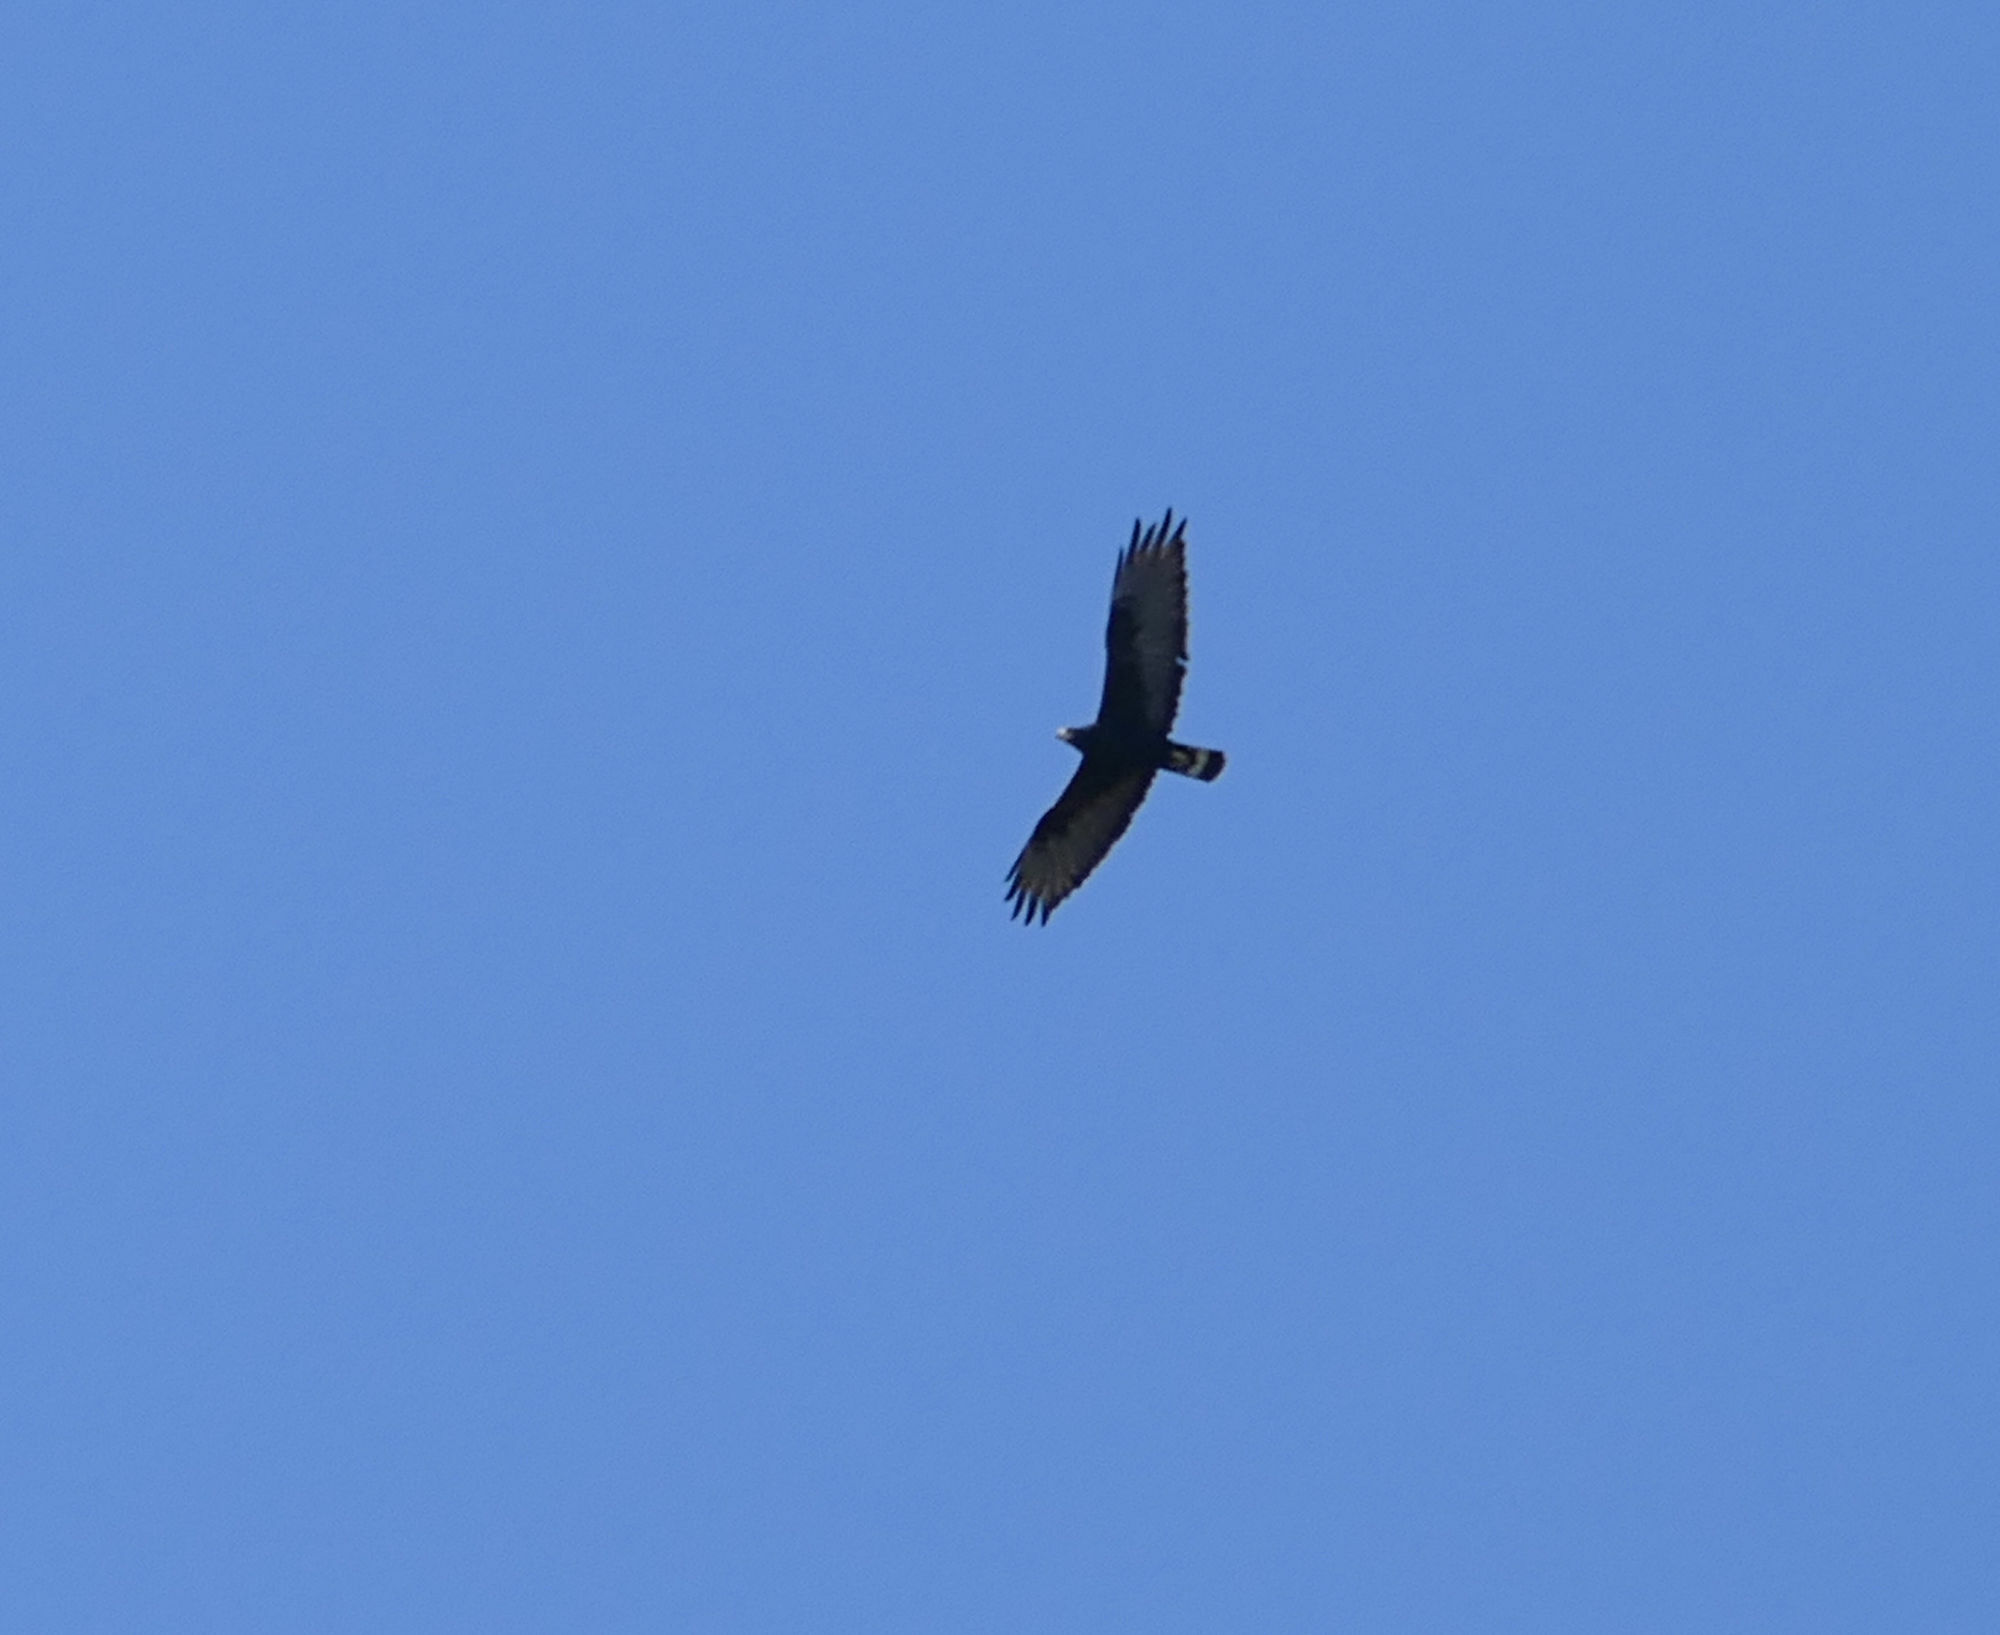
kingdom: Animalia
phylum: Chordata
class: Aves
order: Accipitriformes
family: Accipitridae
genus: Buteo
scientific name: Buteo albonotatus
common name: Zone-tailed hawk
